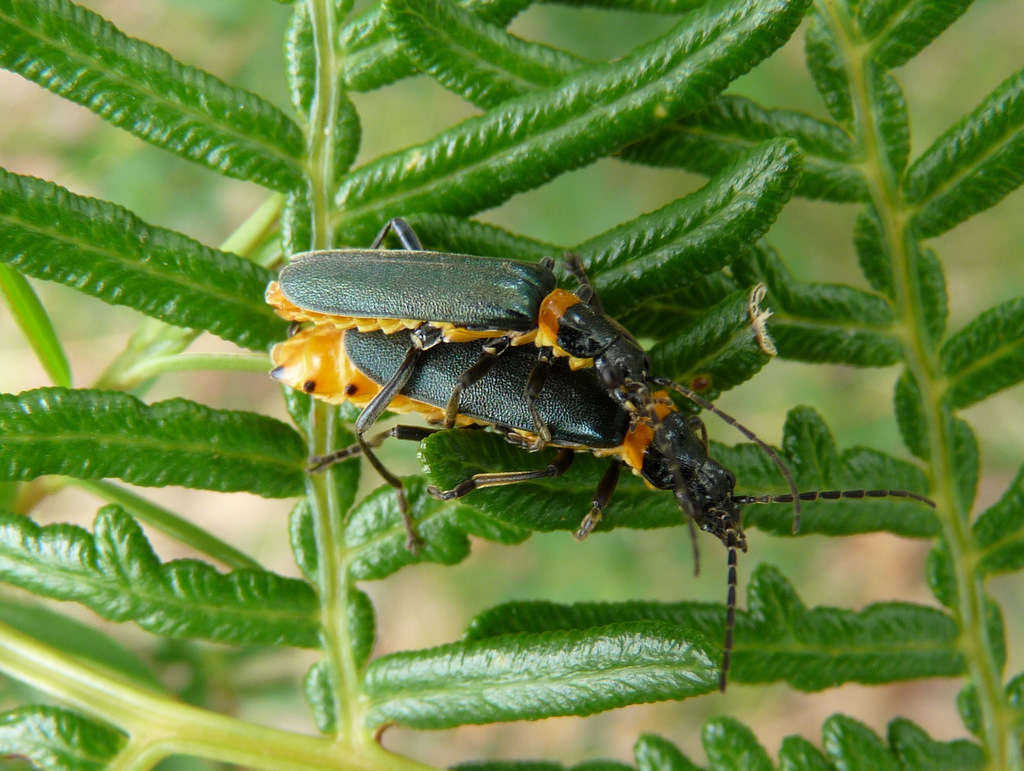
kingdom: Animalia
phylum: Arthropoda
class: Insecta
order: Coleoptera
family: Cantharidae
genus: Chauliognathus
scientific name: Chauliognathus
